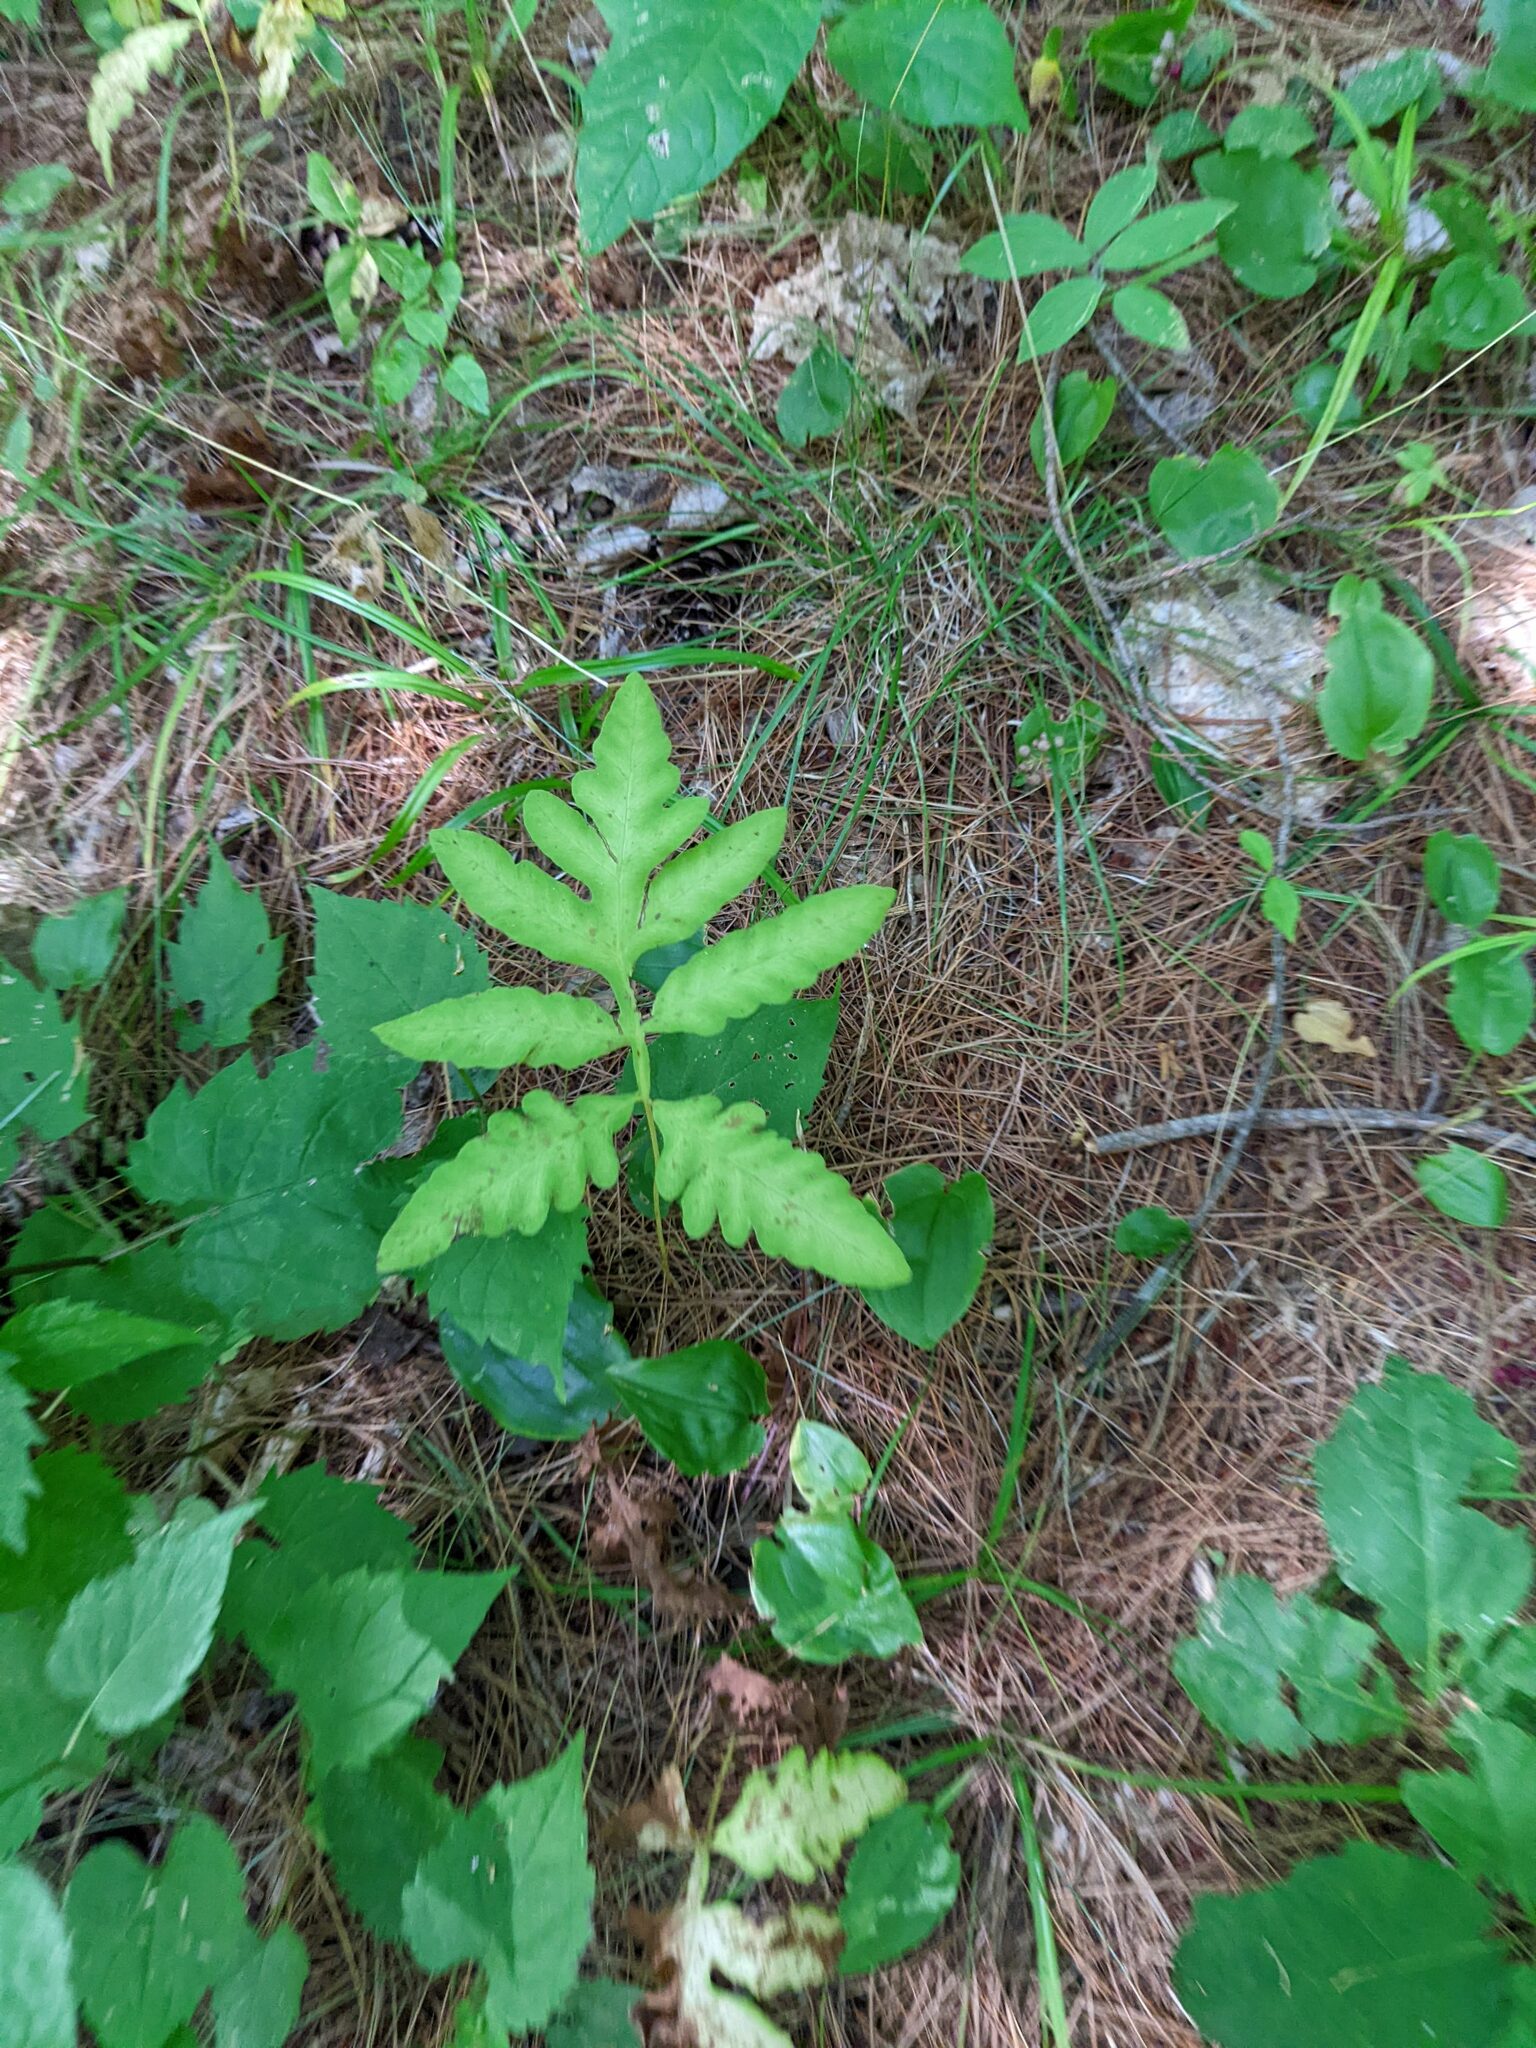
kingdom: Plantae
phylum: Tracheophyta
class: Polypodiopsida
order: Polypodiales
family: Onocleaceae
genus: Onoclea
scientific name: Onoclea sensibilis
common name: Sensitive fern
